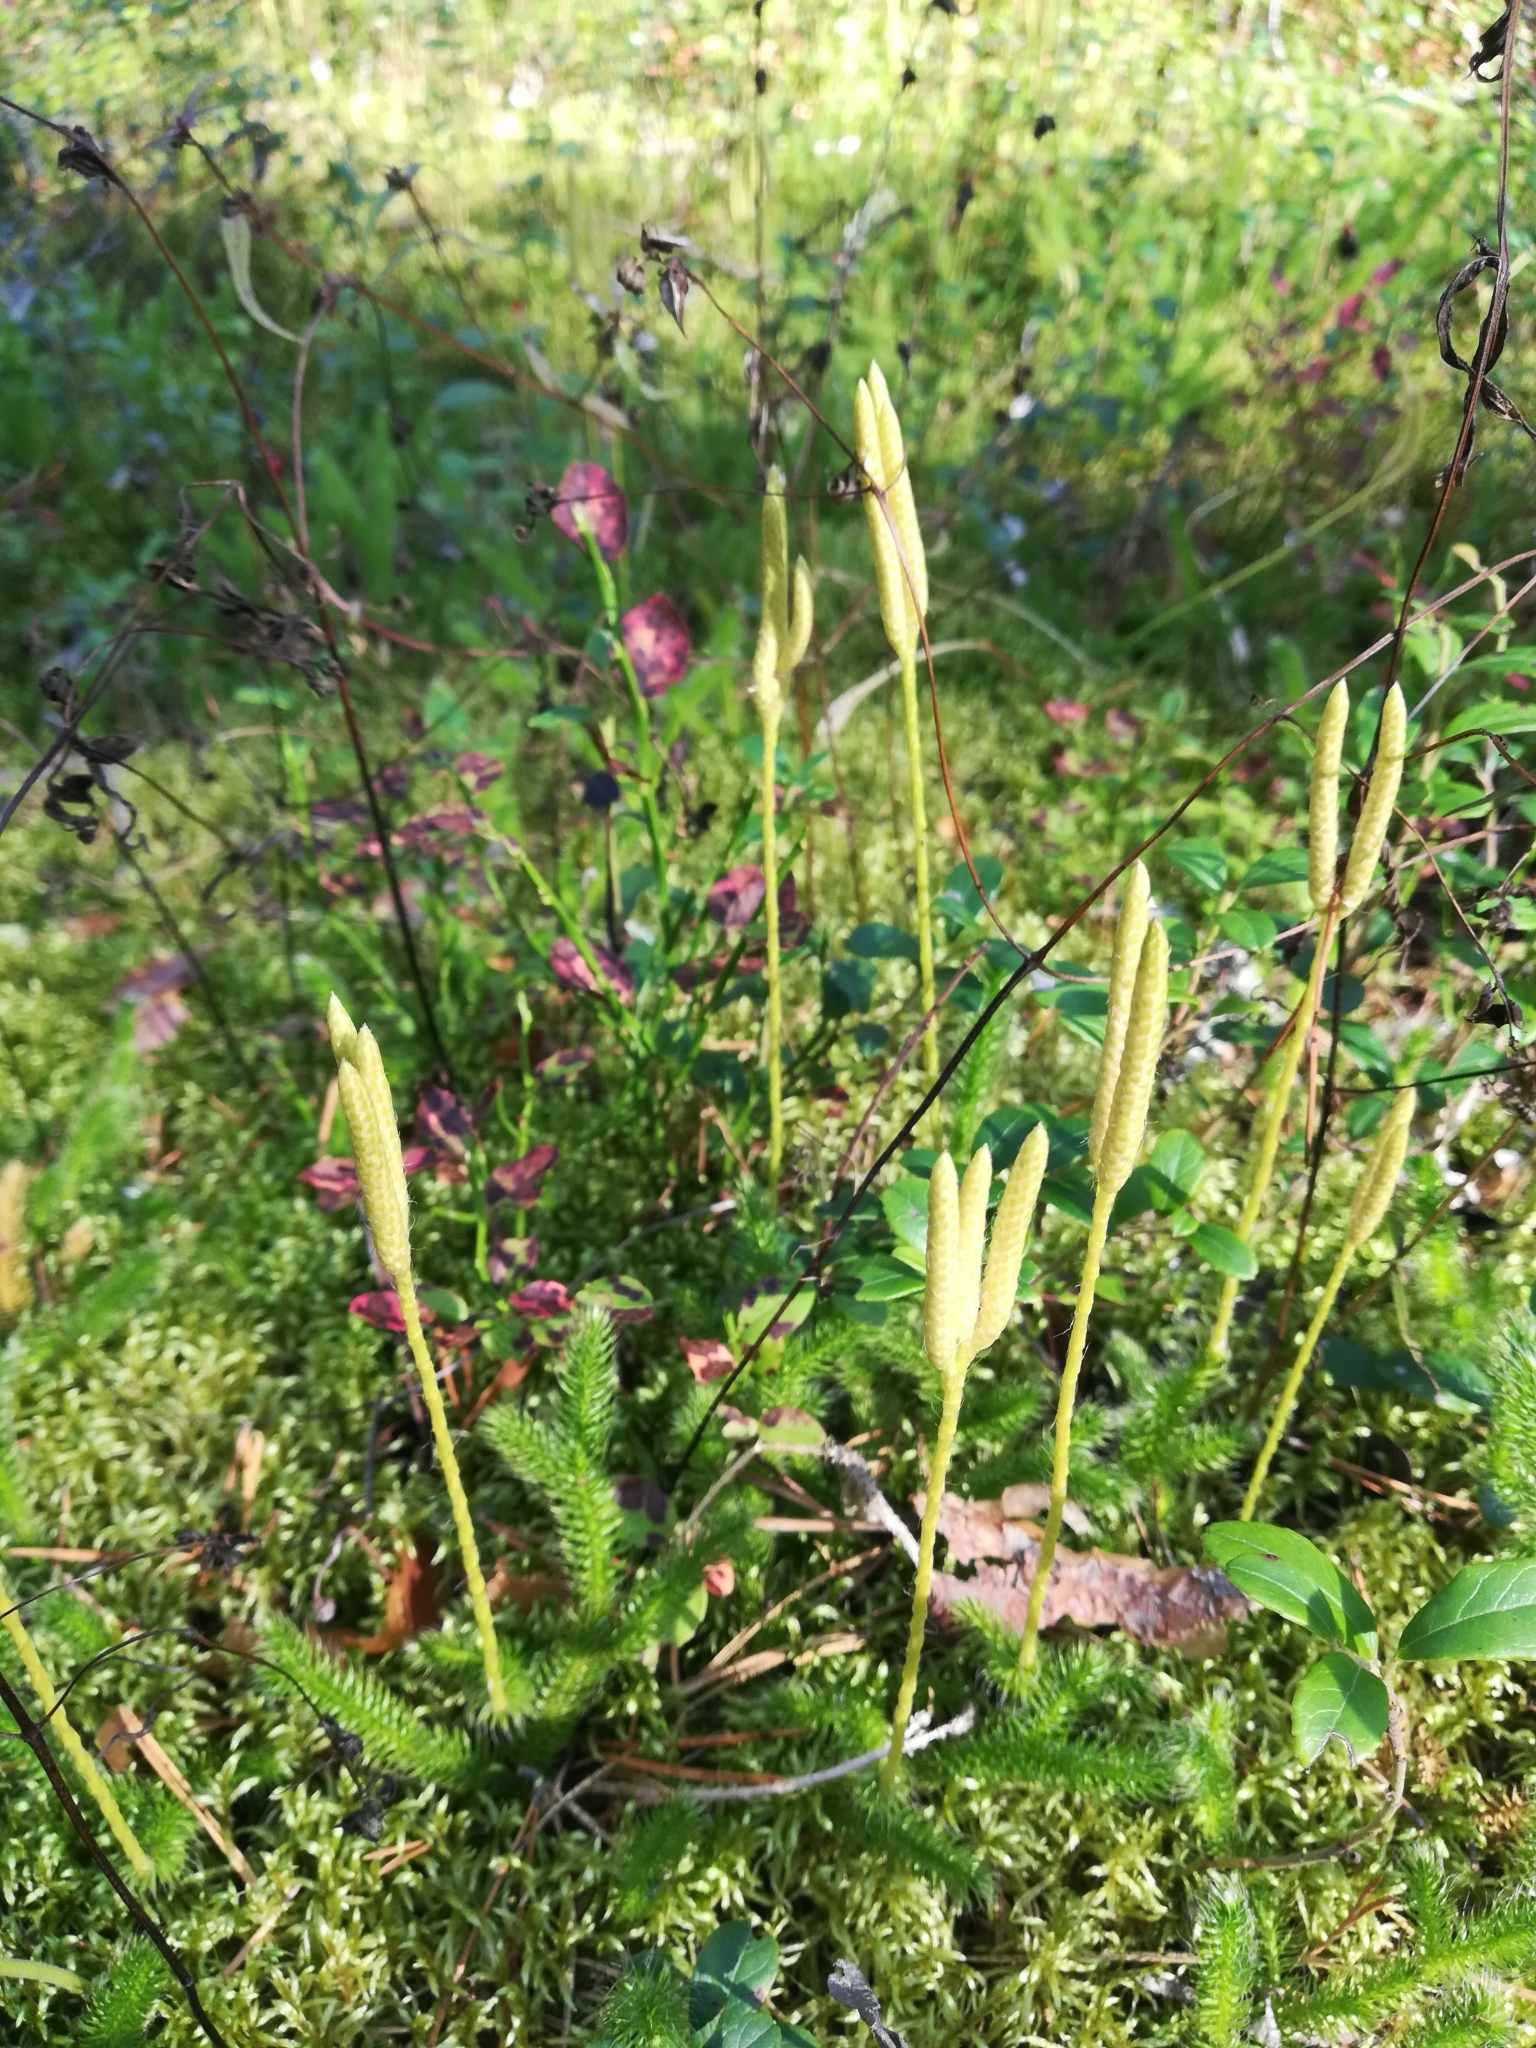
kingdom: Plantae
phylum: Tracheophyta
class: Lycopodiopsida
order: Lycopodiales
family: Lycopodiaceae
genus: Lycopodium
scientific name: Lycopodium clavatum
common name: Stag's-horn clubmoss
